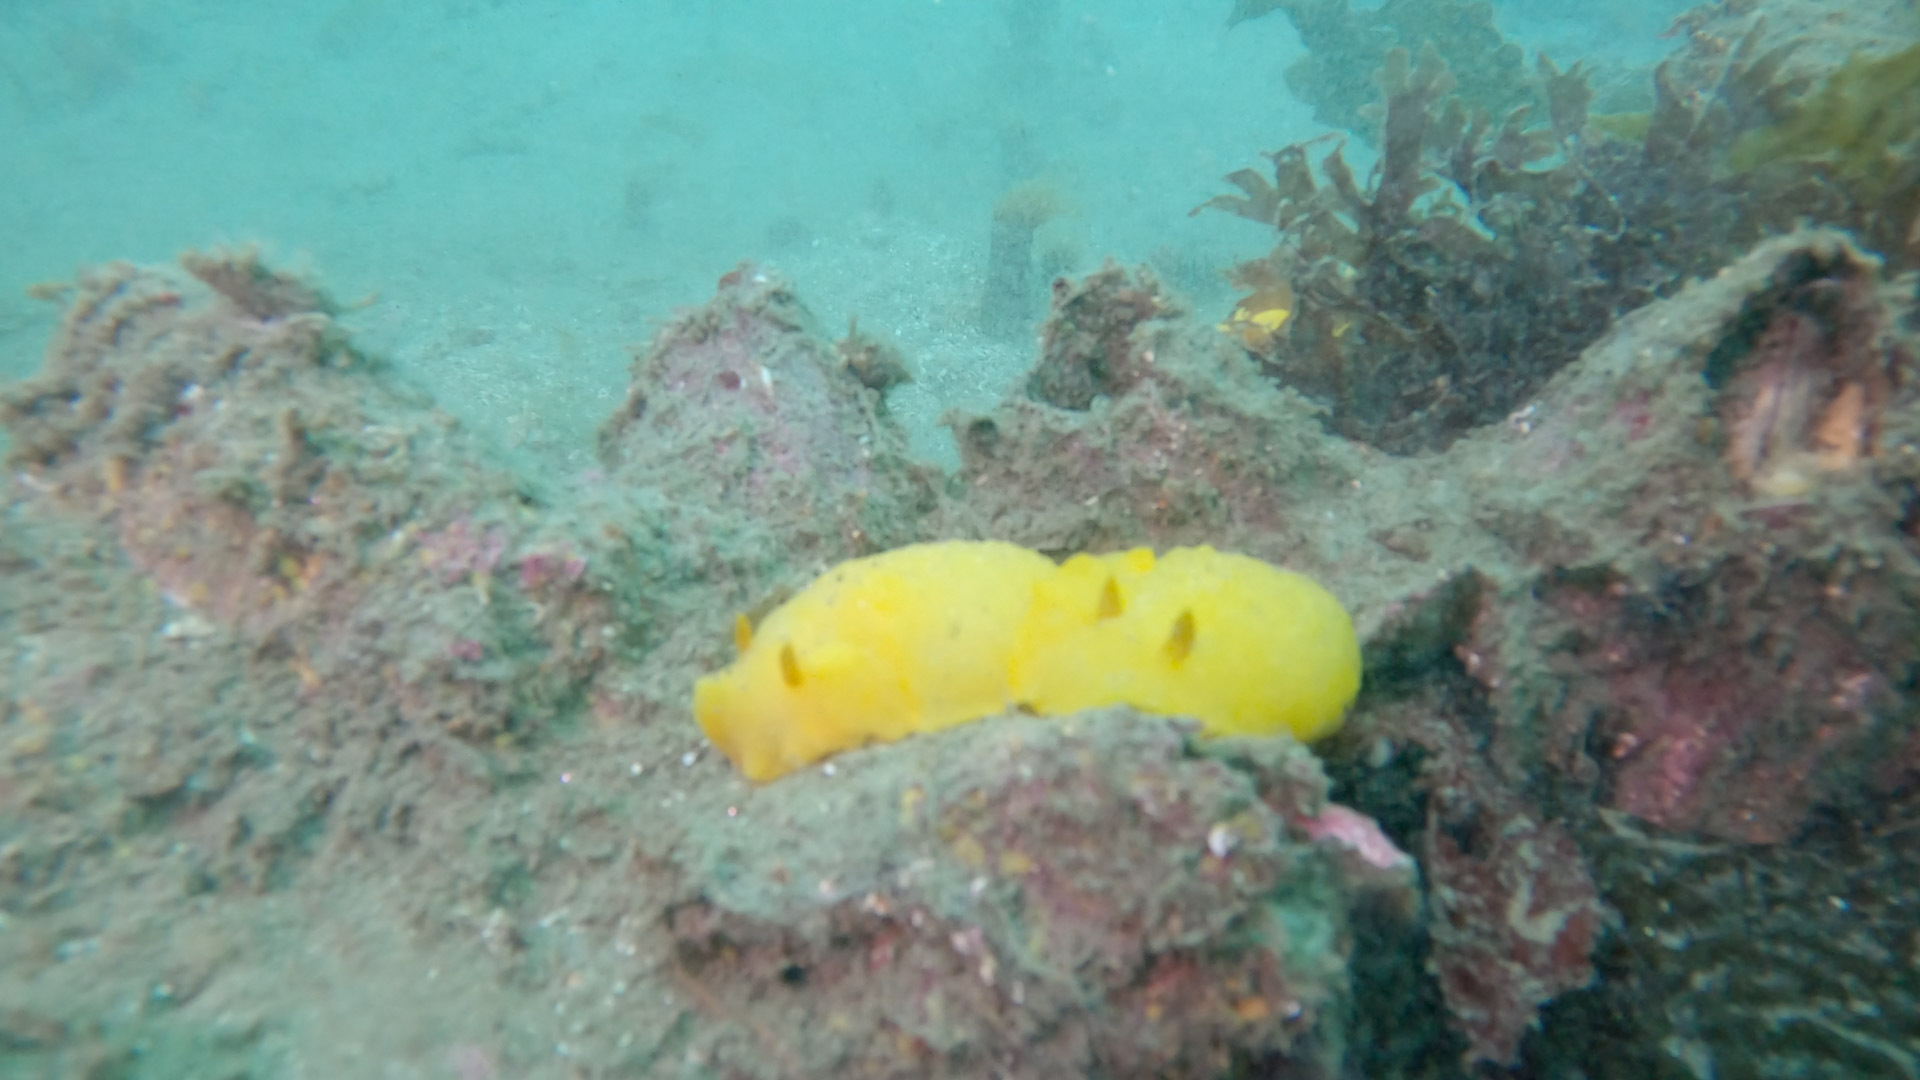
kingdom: Animalia
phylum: Mollusca
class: Gastropoda
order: Nudibranchia
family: Dorididae
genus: Doris
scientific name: Doris montereyensis
